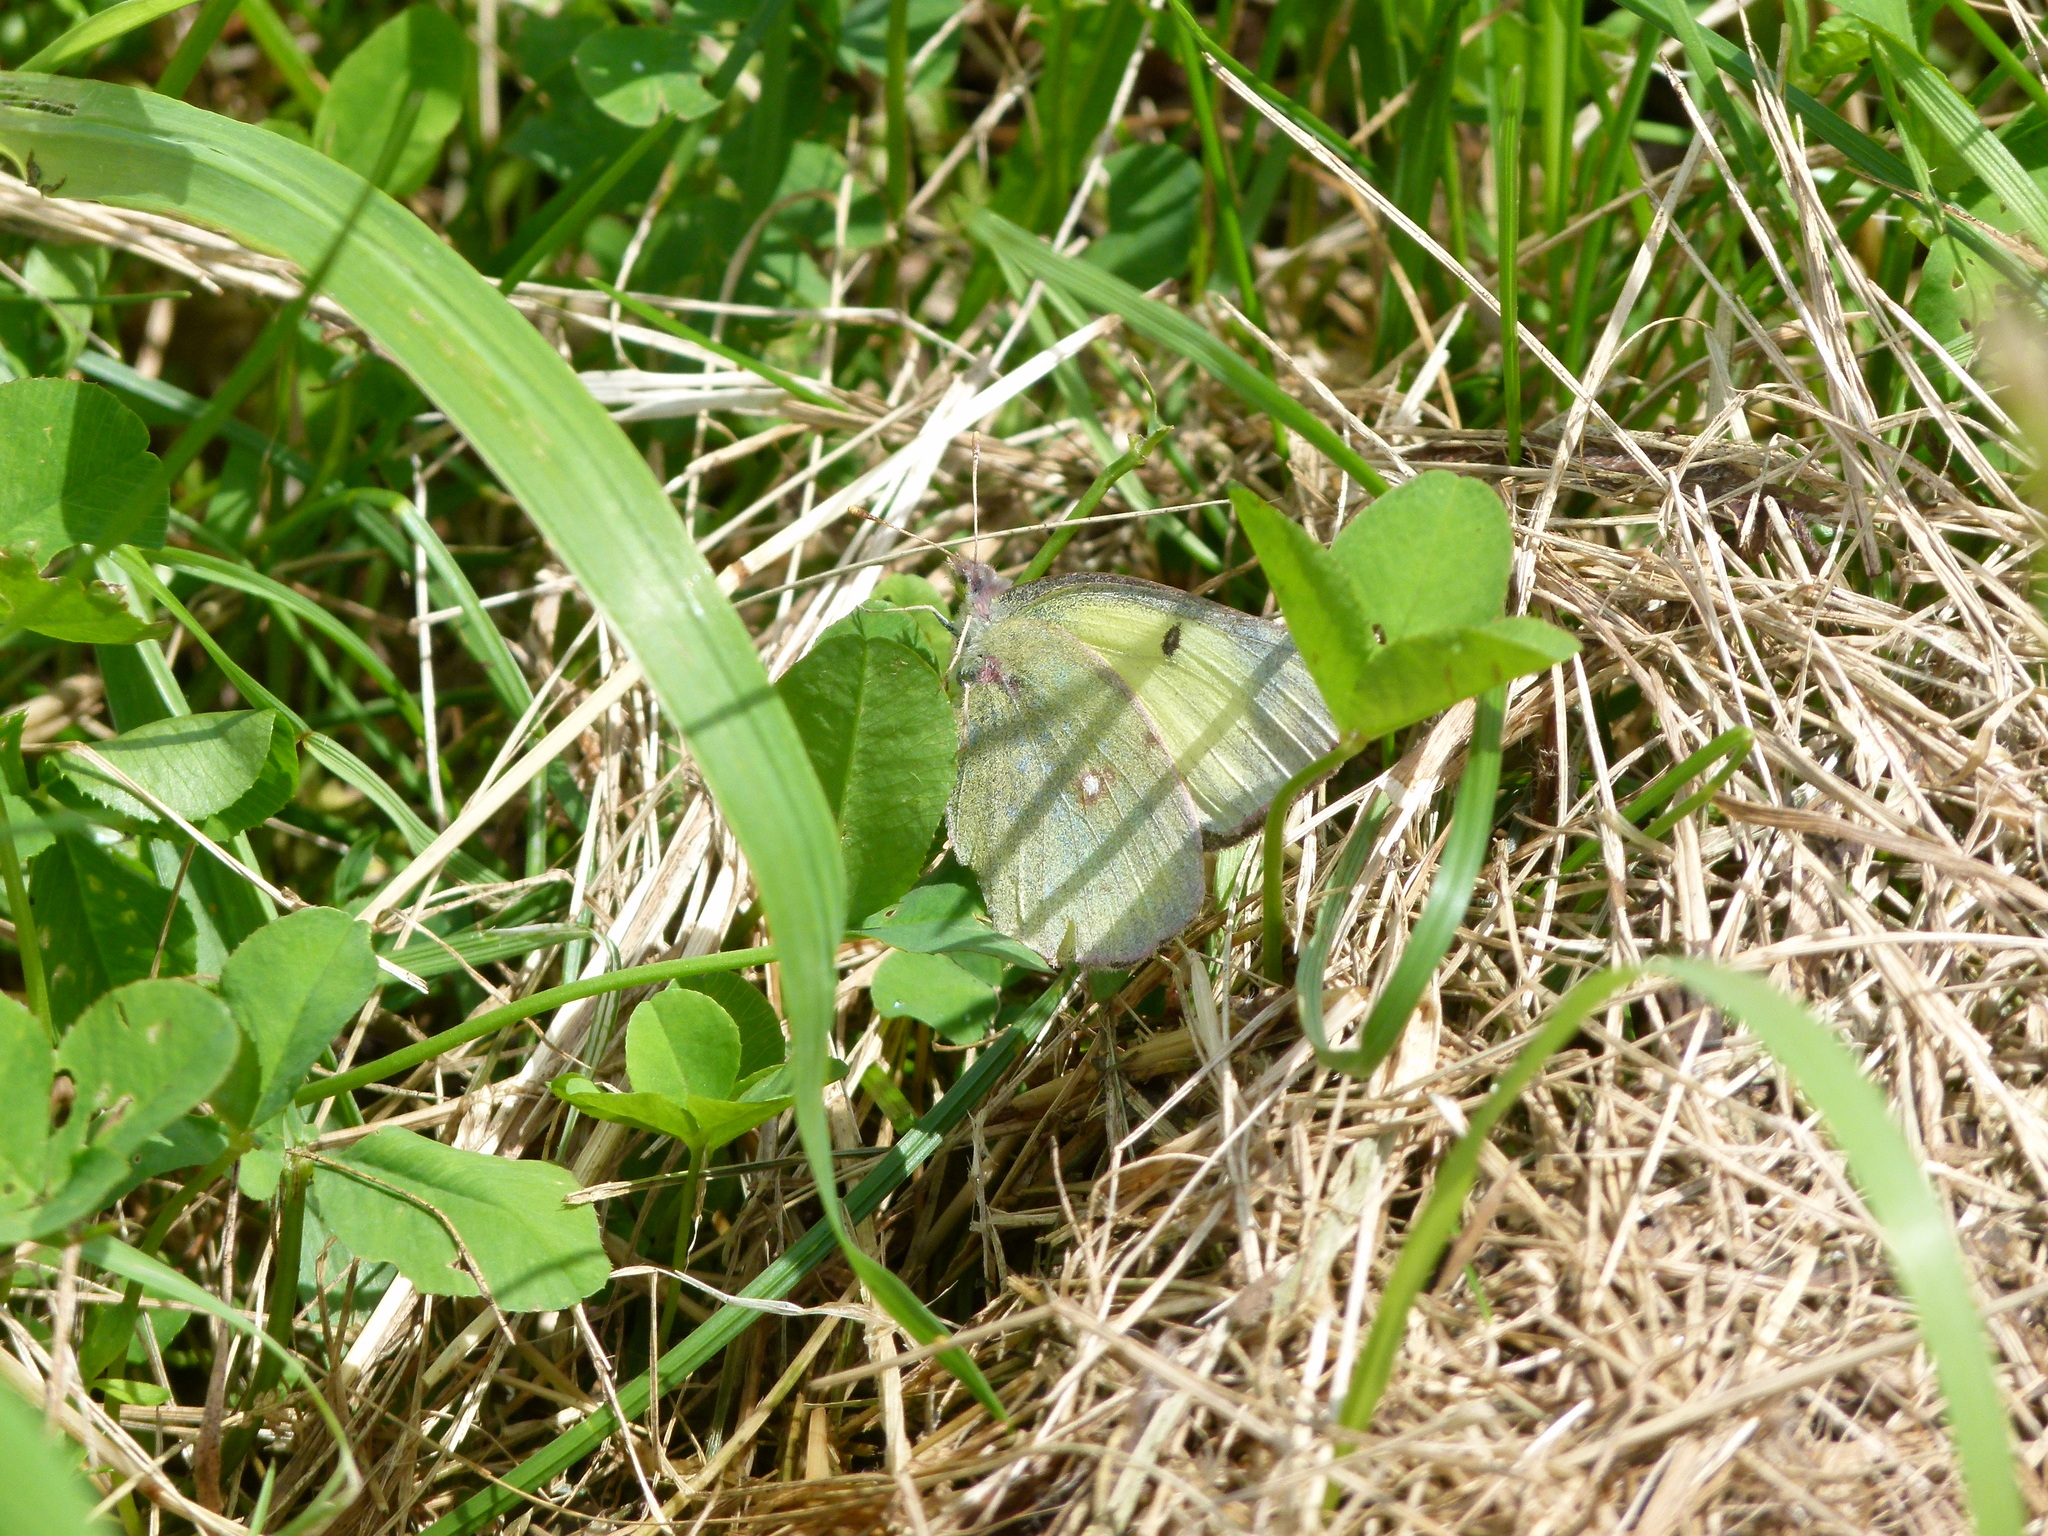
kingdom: Animalia
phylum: Arthropoda
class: Insecta
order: Lepidoptera
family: Pieridae
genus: Colias
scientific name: Colias philodice
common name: Clouded sulphur
